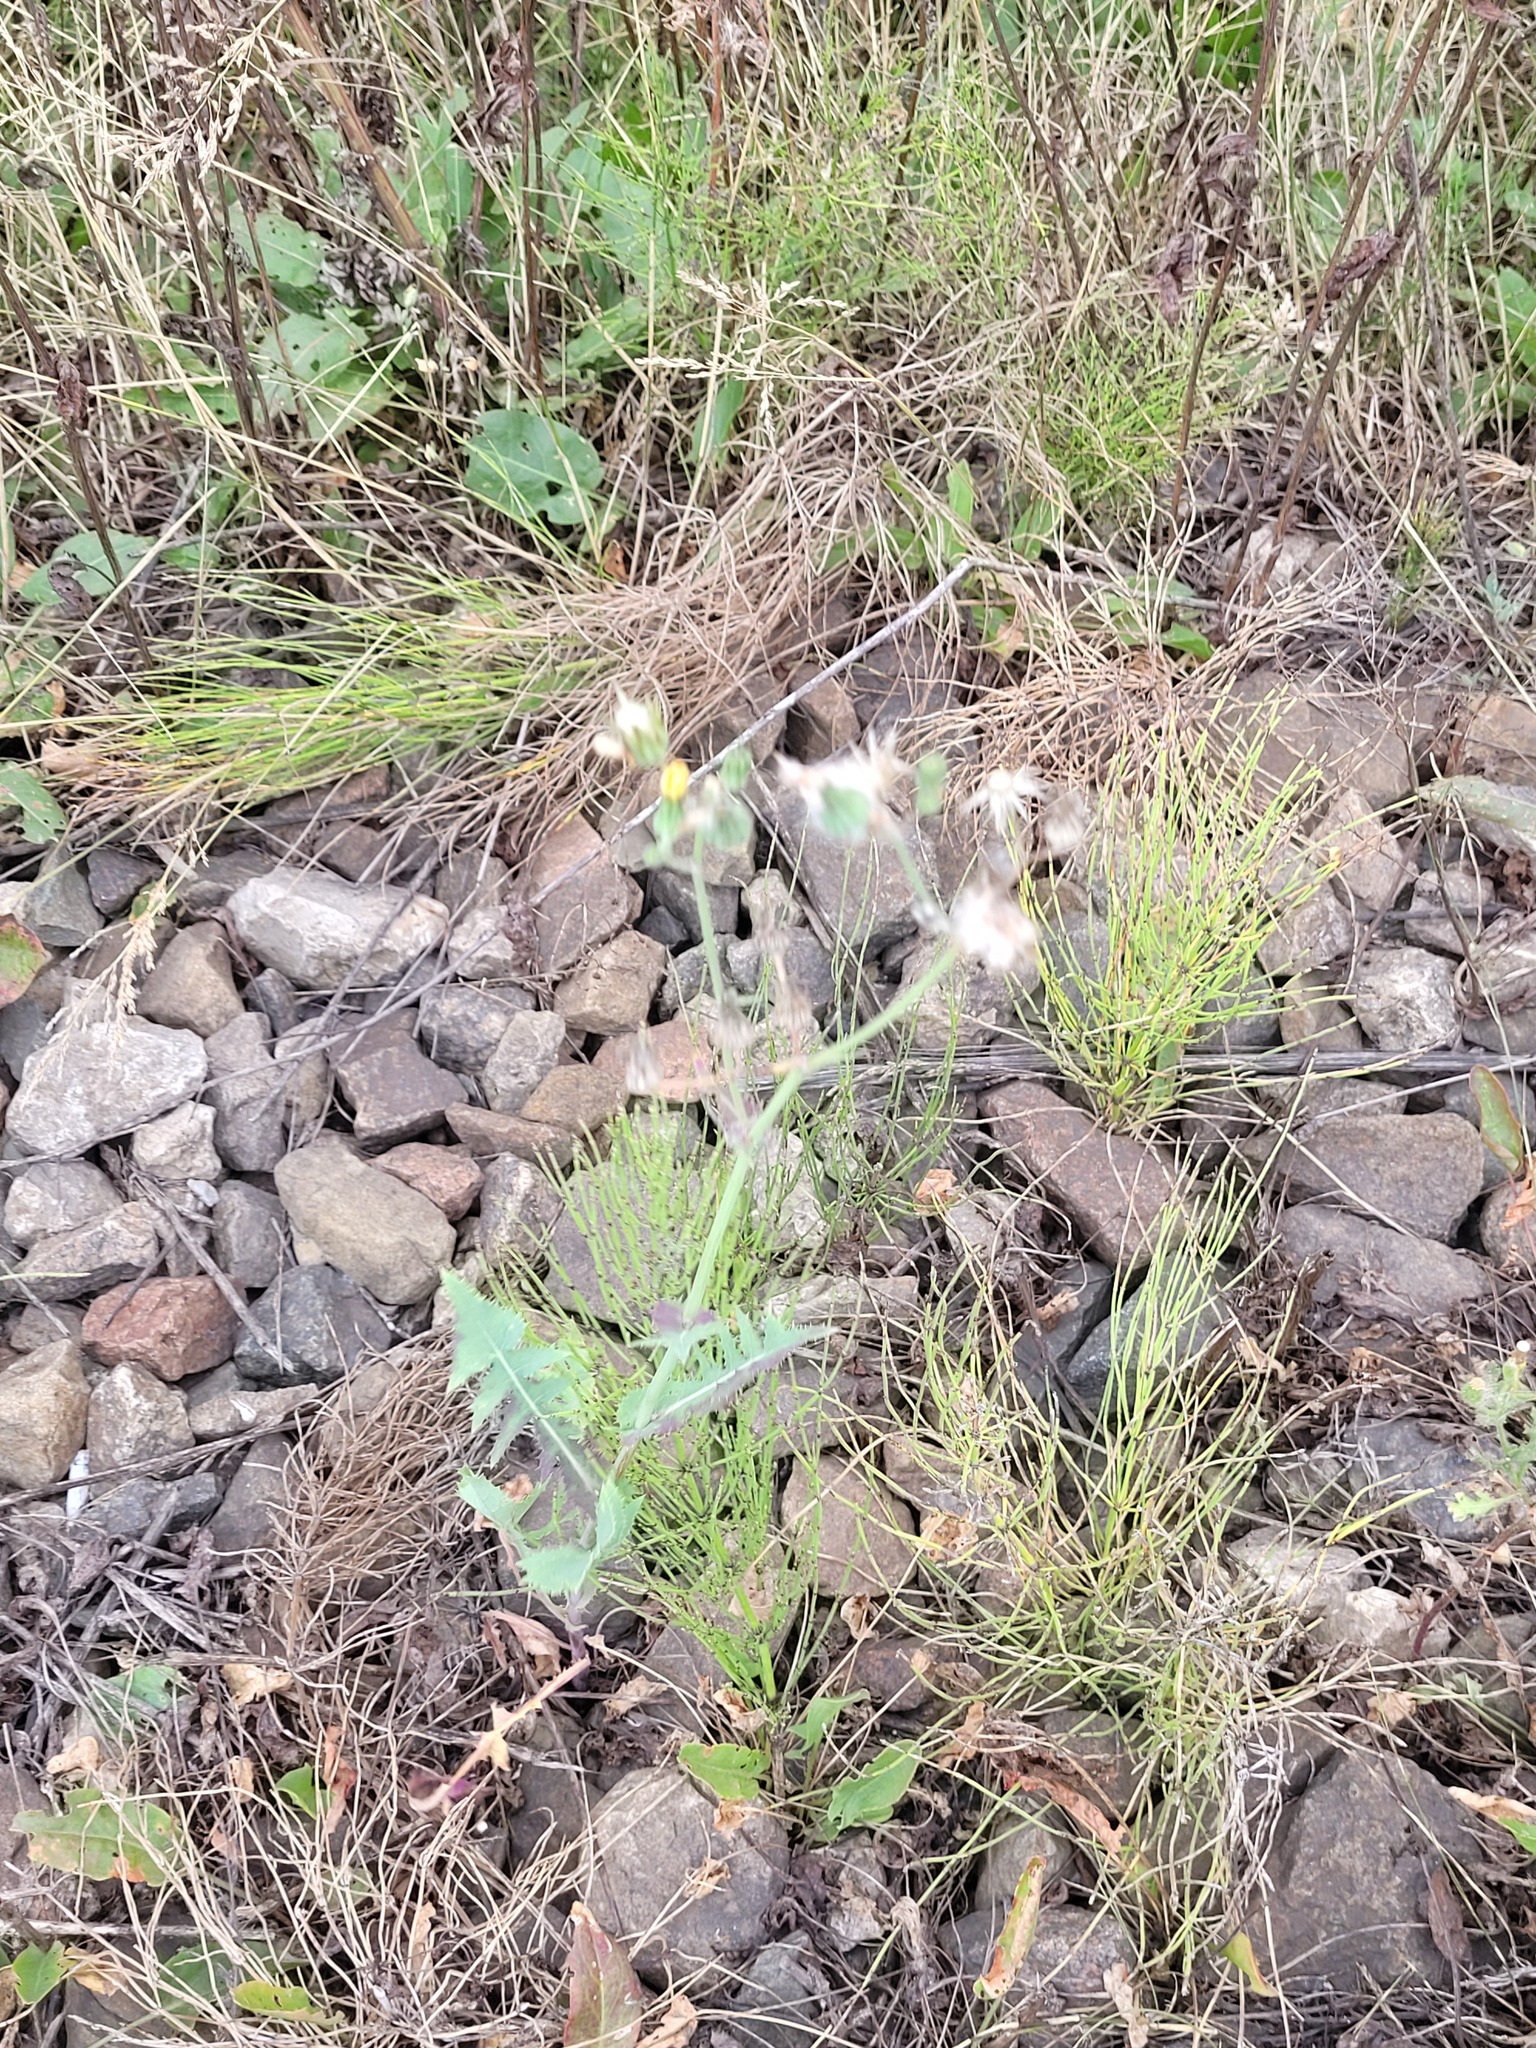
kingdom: Plantae
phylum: Tracheophyta
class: Magnoliopsida
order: Asterales
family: Asteraceae
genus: Sonchus
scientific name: Sonchus oleraceus
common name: Common sowthistle
